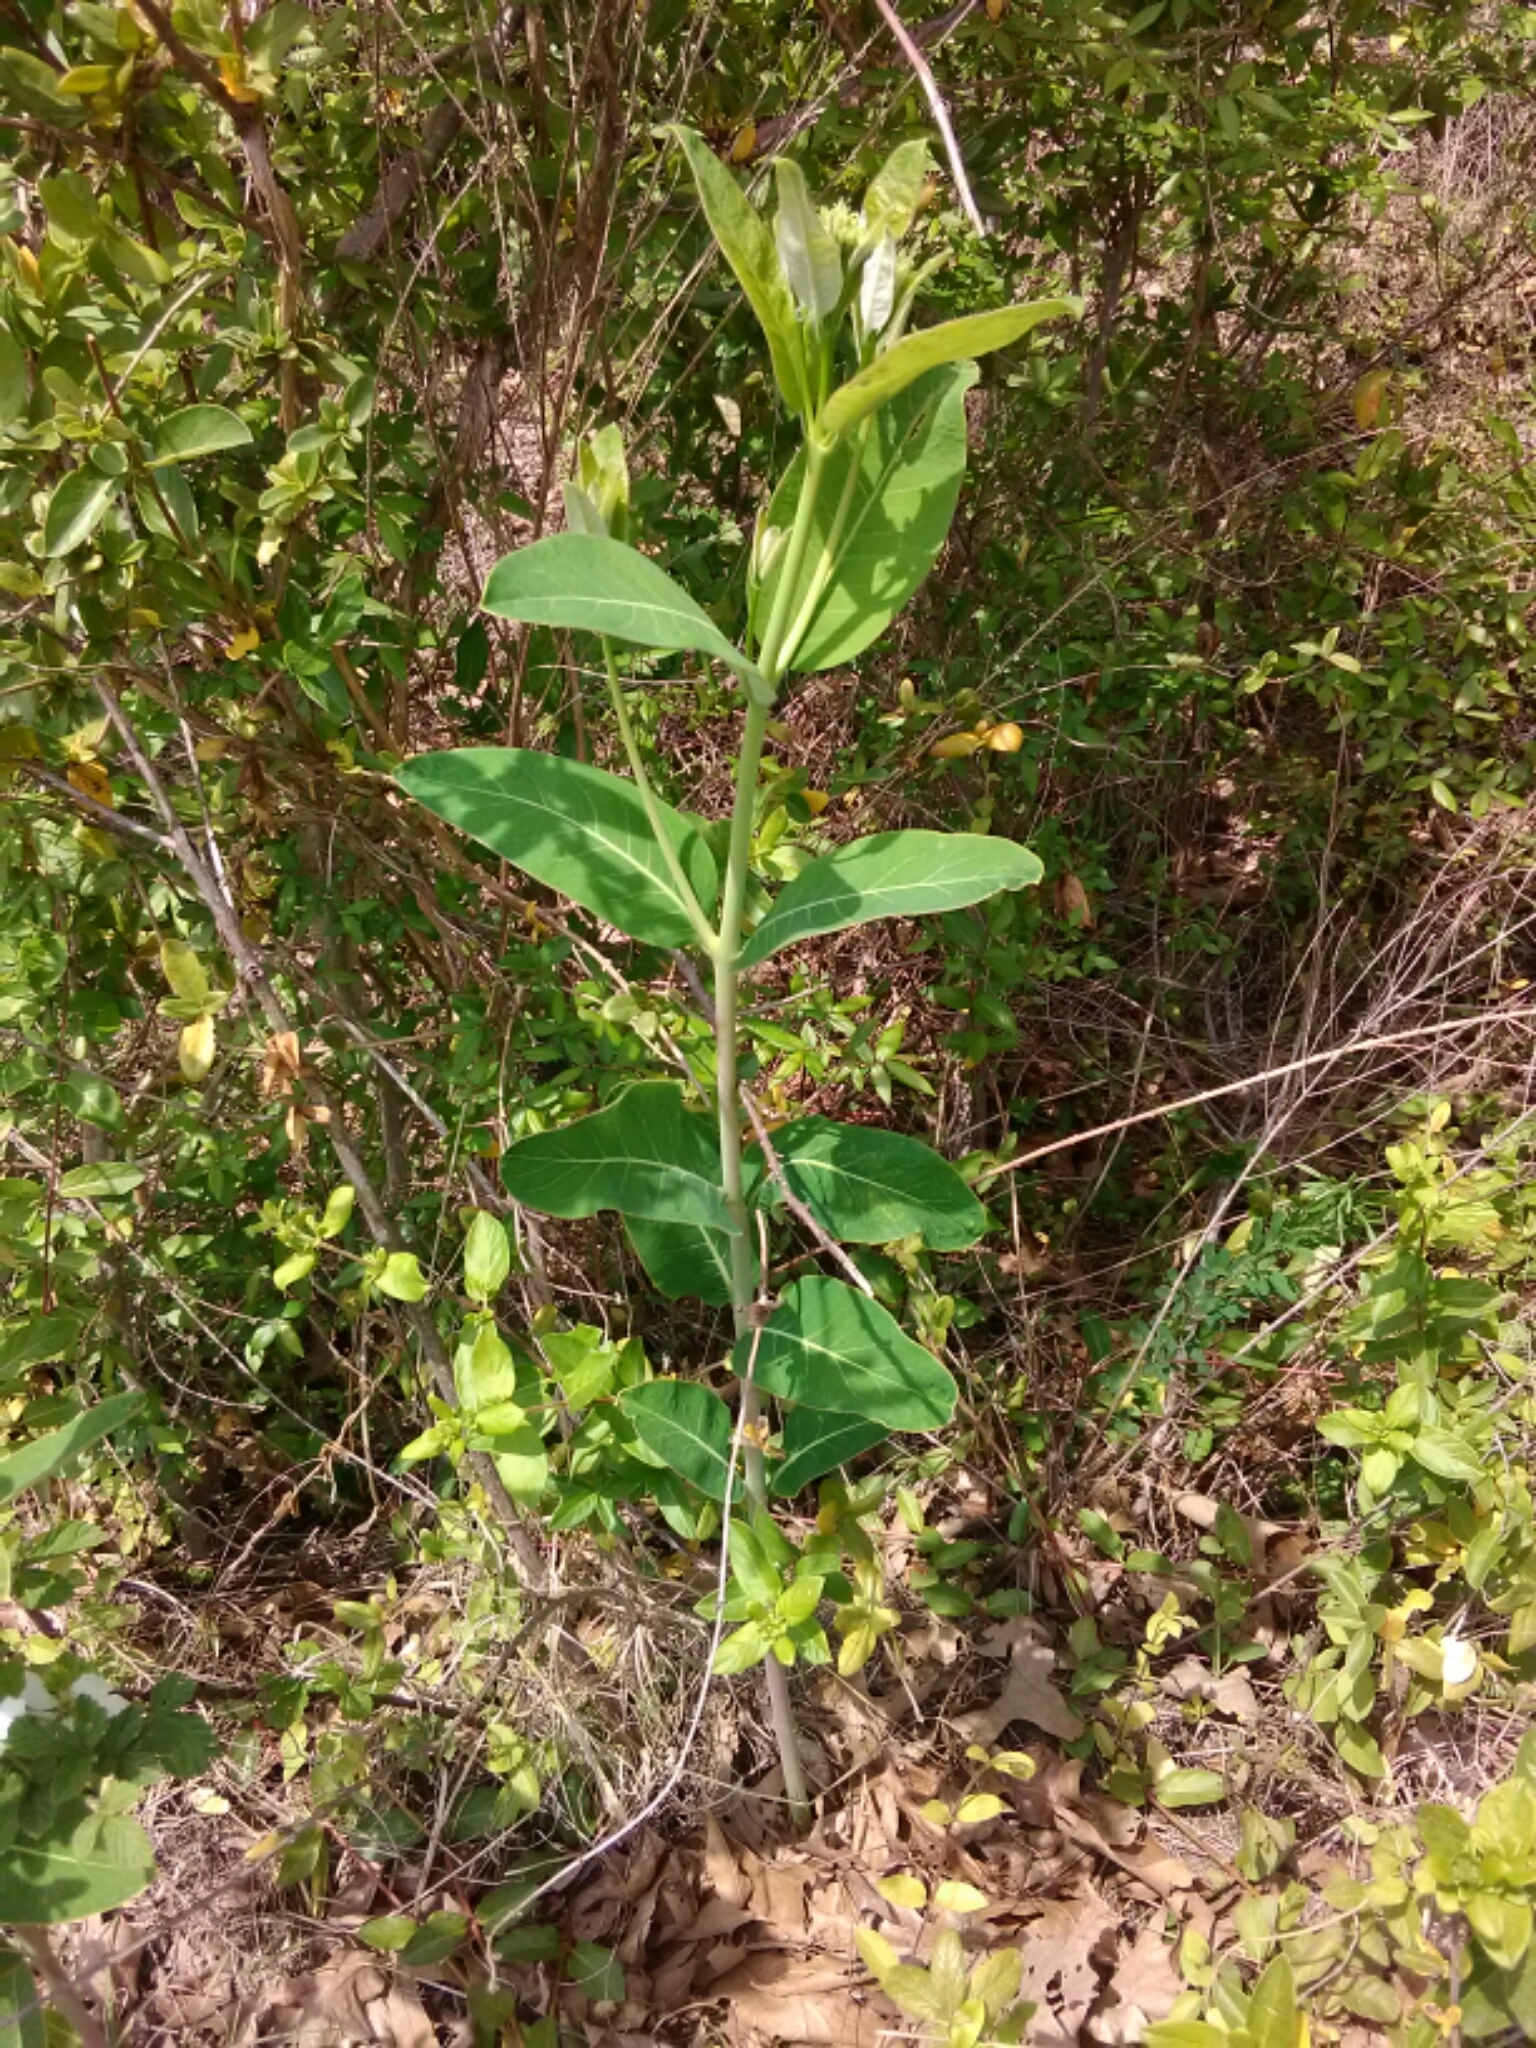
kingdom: Plantae
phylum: Tracheophyta
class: Magnoliopsida
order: Gentianales
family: Apocynaceae
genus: Apocynum
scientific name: Apocynum cannabinum
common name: Hemp dogbane
